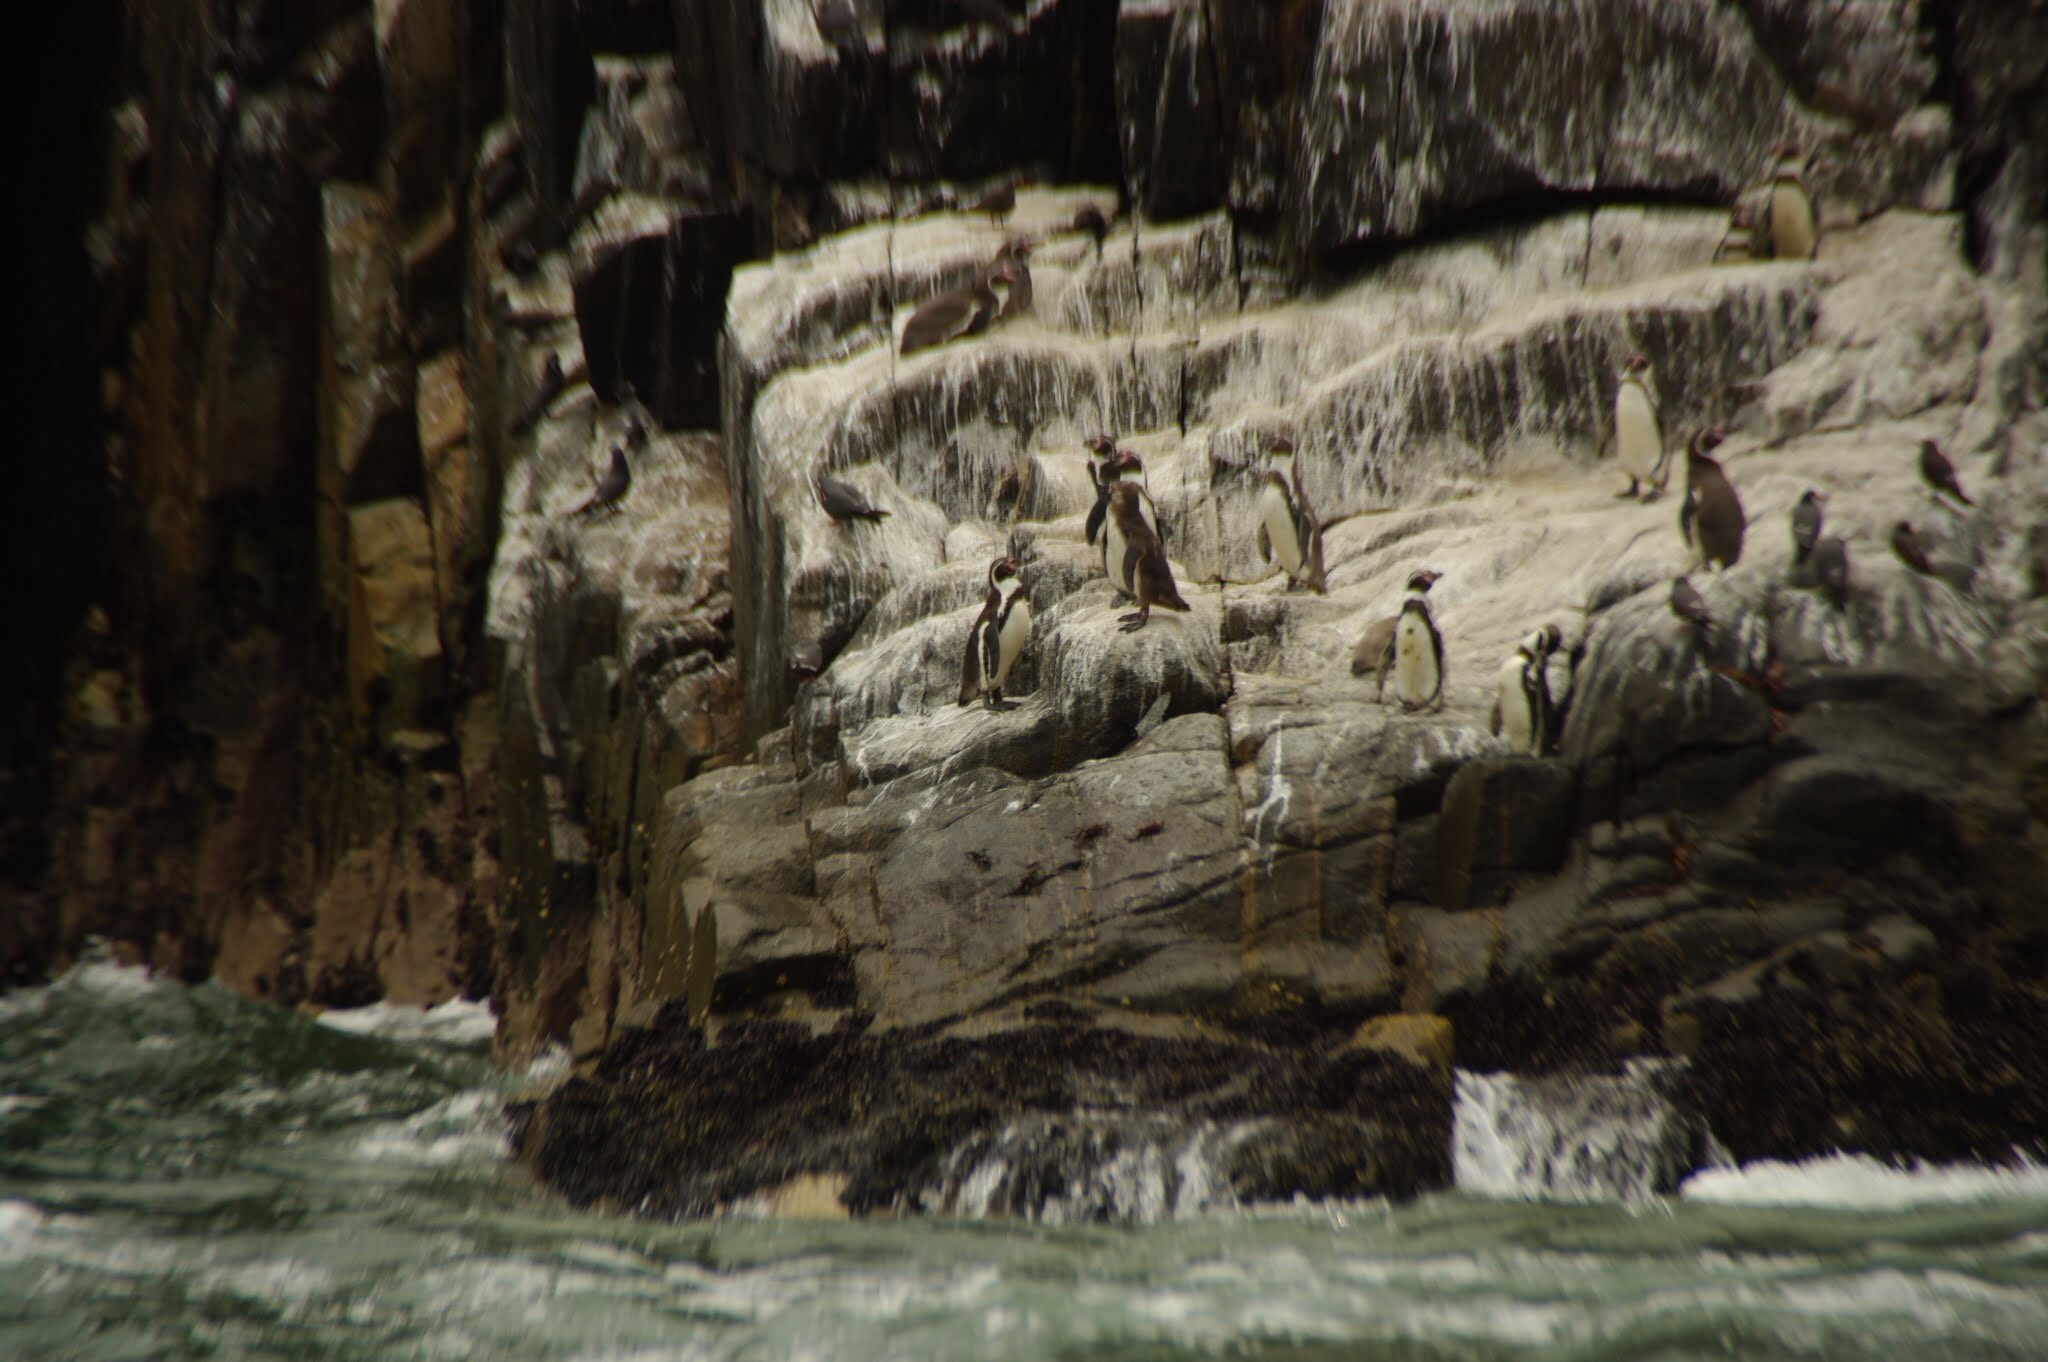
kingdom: Animalia
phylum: Chordata
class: Aves
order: Sphenisciformes
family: Spheniscidae
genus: Spheniscus
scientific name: Spheniscus humboldti
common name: Humboldt penguin
